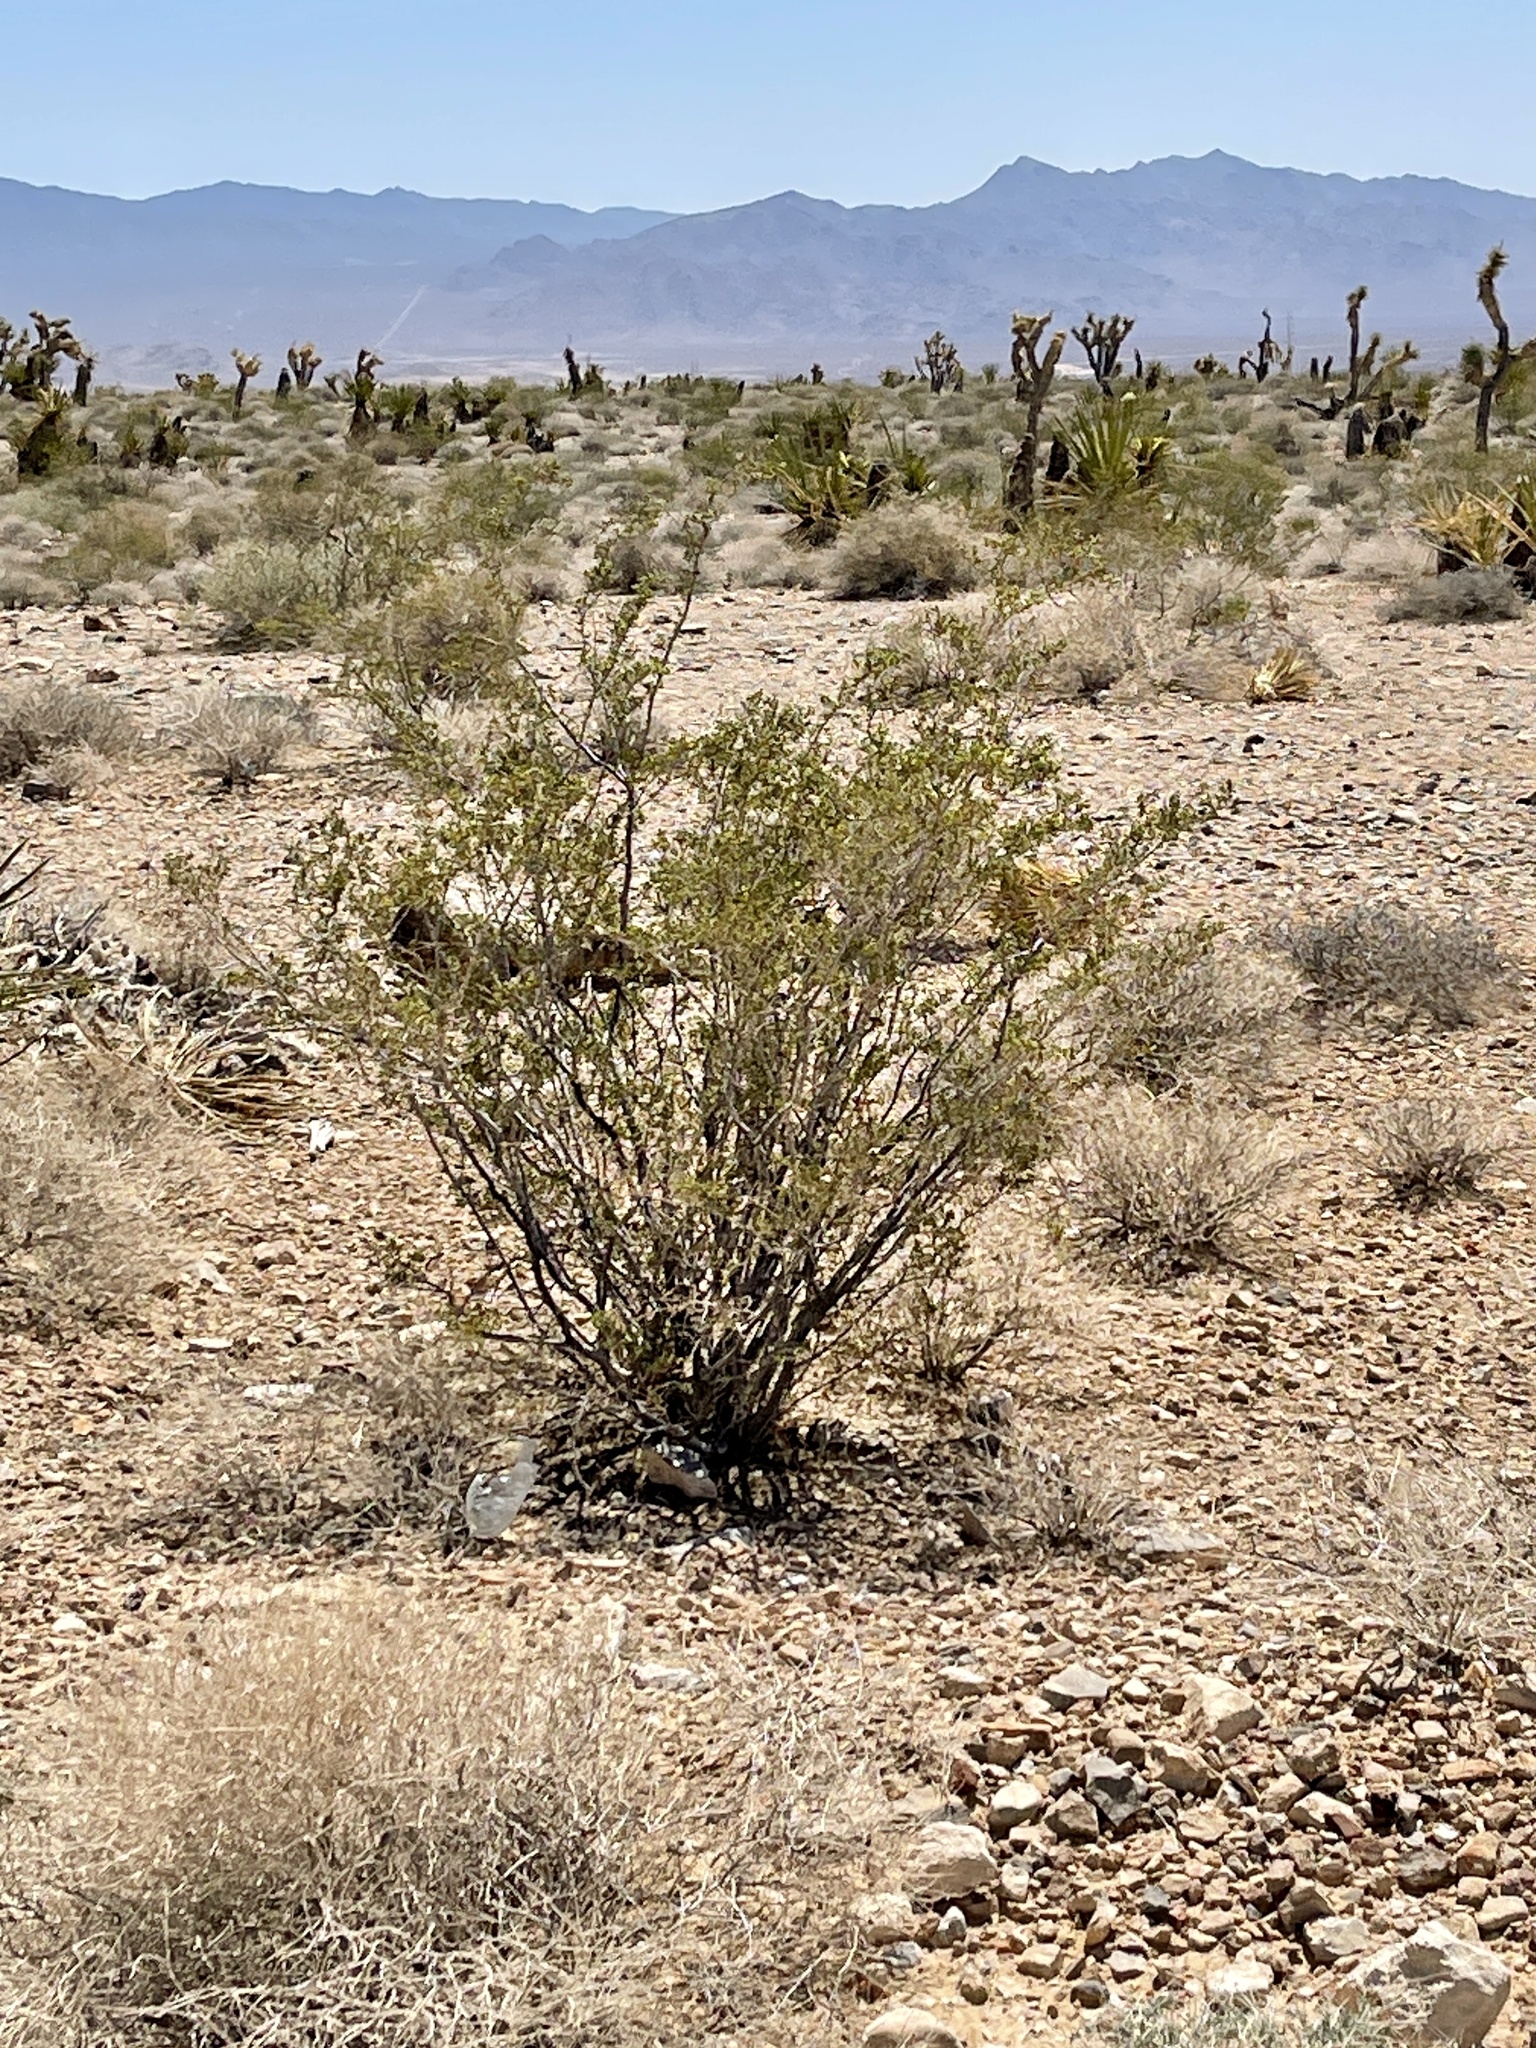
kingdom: Plantae
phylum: Tracheophyta
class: Magnoliopsida
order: Zygophyllales
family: Zygophyllaceae
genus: Larrea
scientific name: Larrea tridentata
